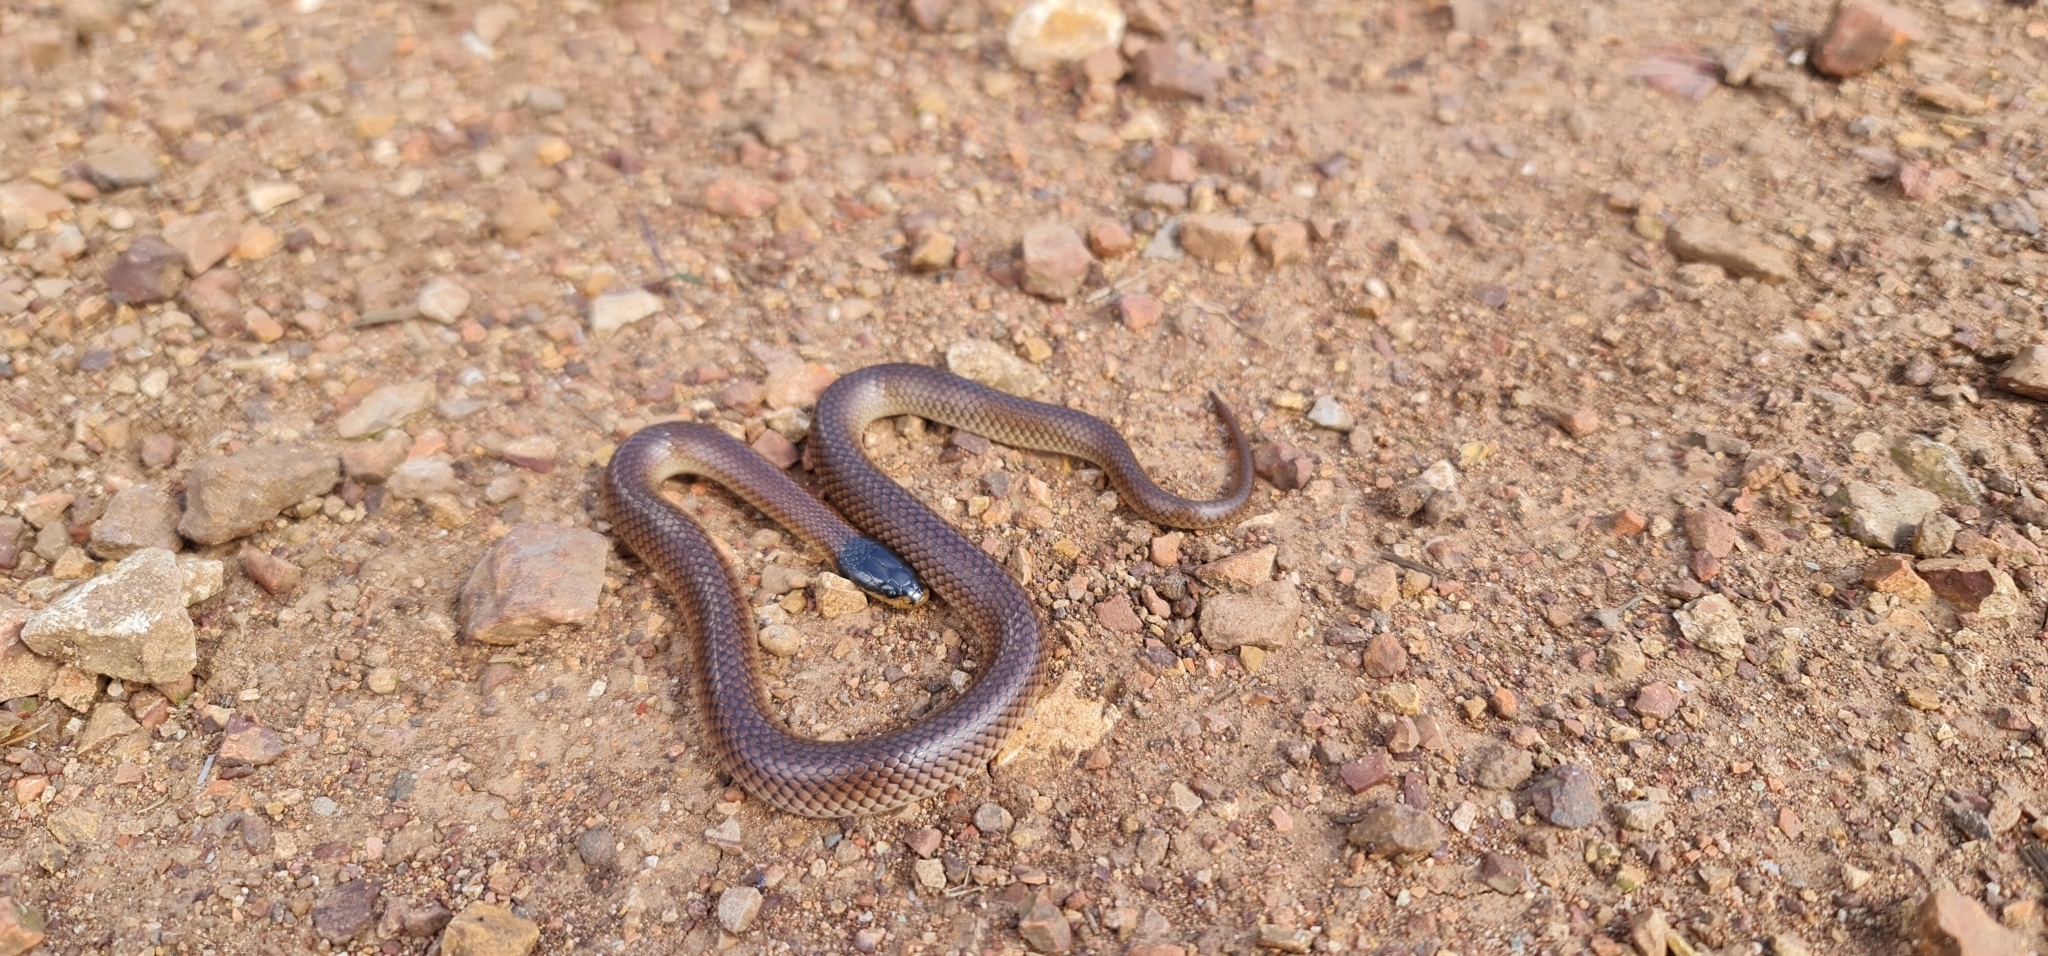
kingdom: Animalia
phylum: Chordata
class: Squamata
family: Elapidae
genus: Suta
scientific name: Suta dwyeri
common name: Variable black-naped snake
